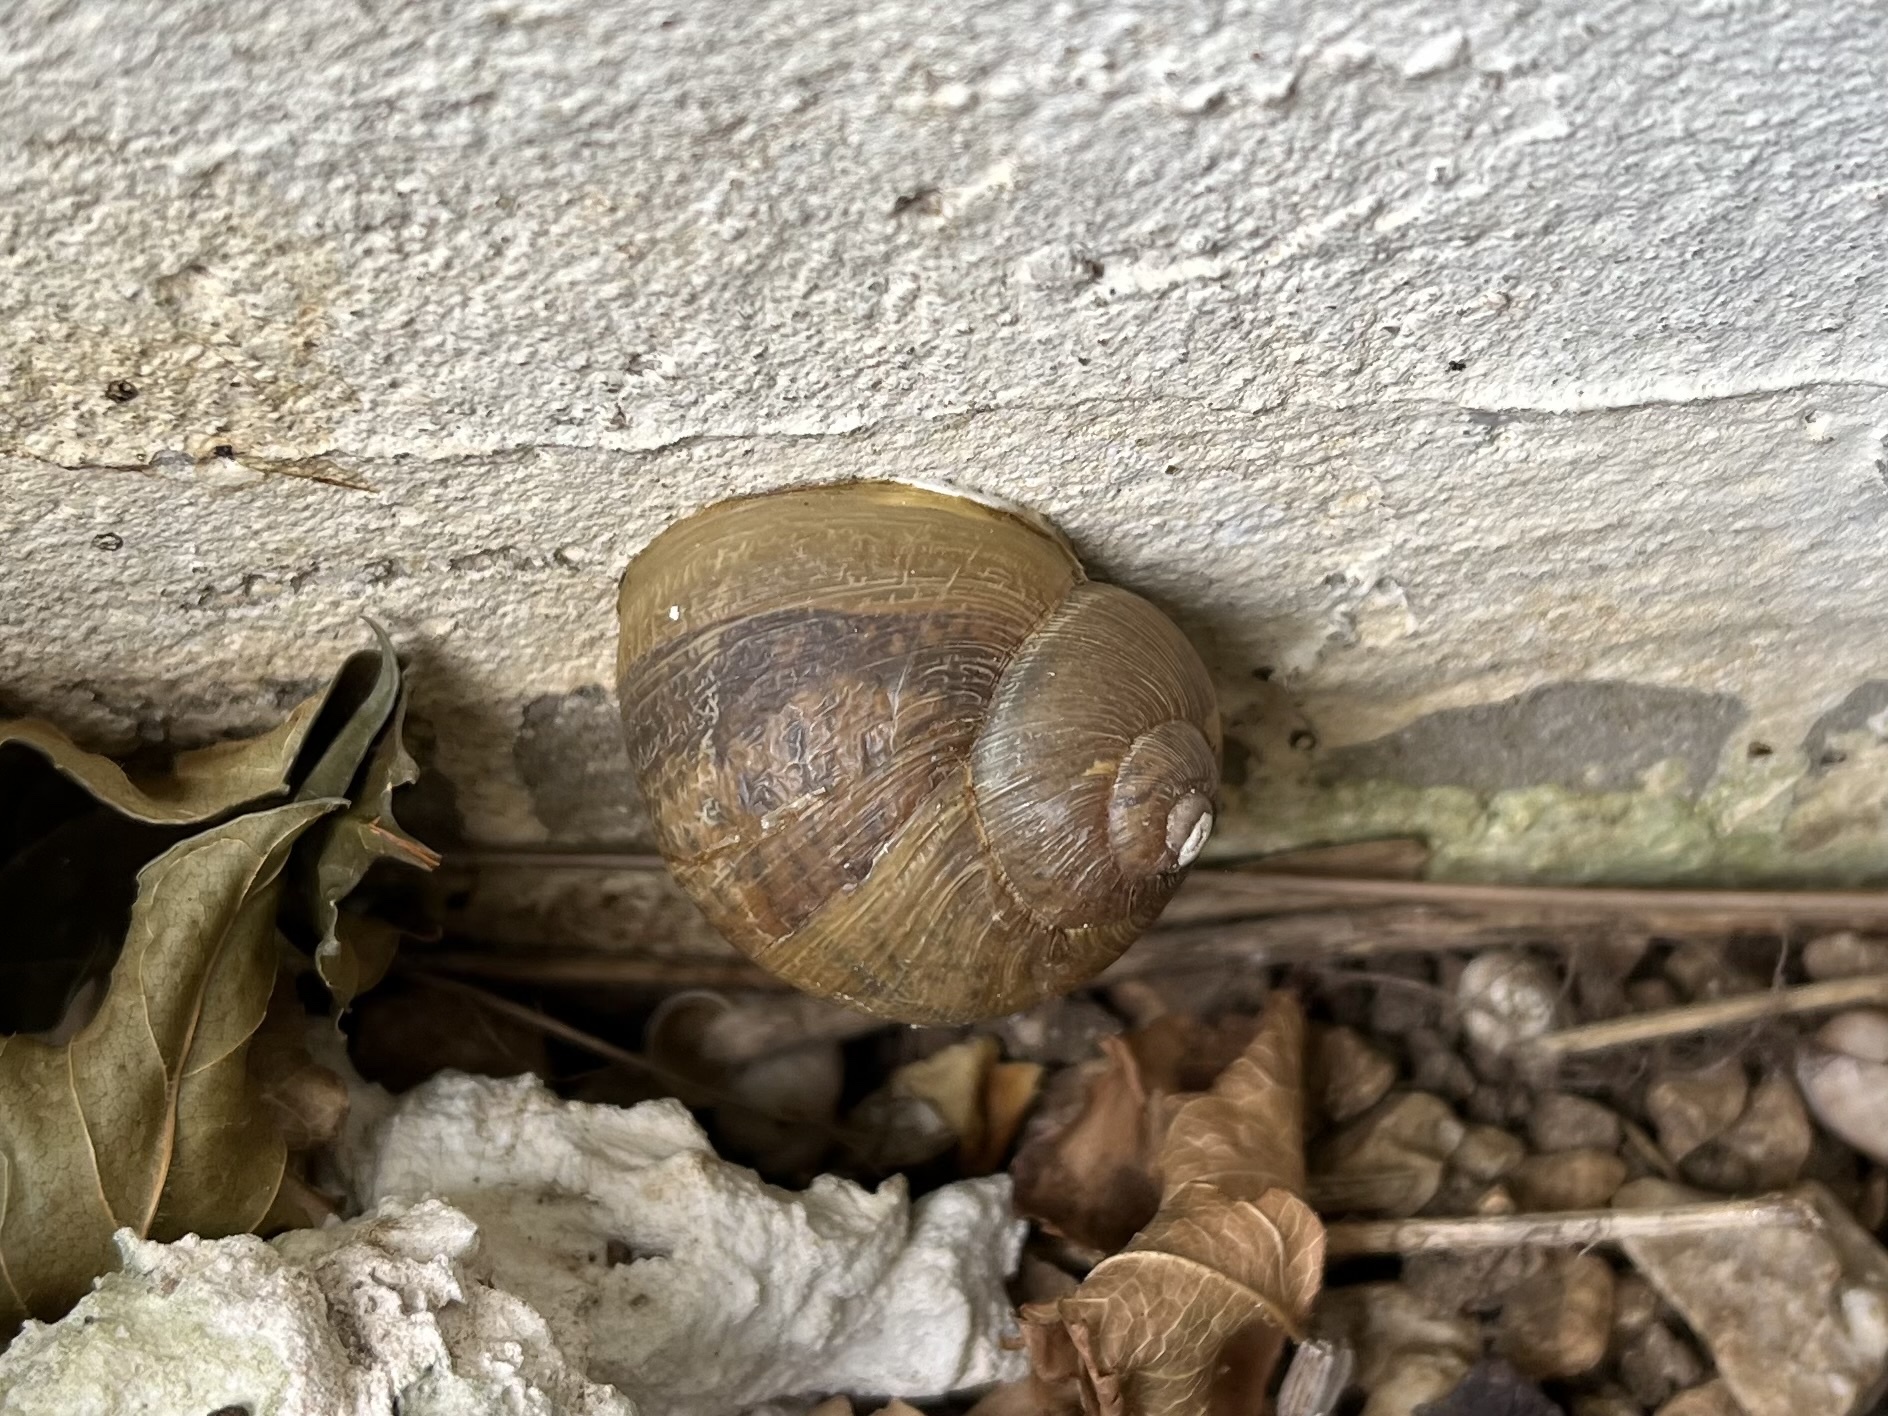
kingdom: Animalia
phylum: Mollusca
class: Gastropoda
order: Stylommatophora
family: Helicidae
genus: Cornu
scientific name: Cornu aspersum
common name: Brown garden snail
